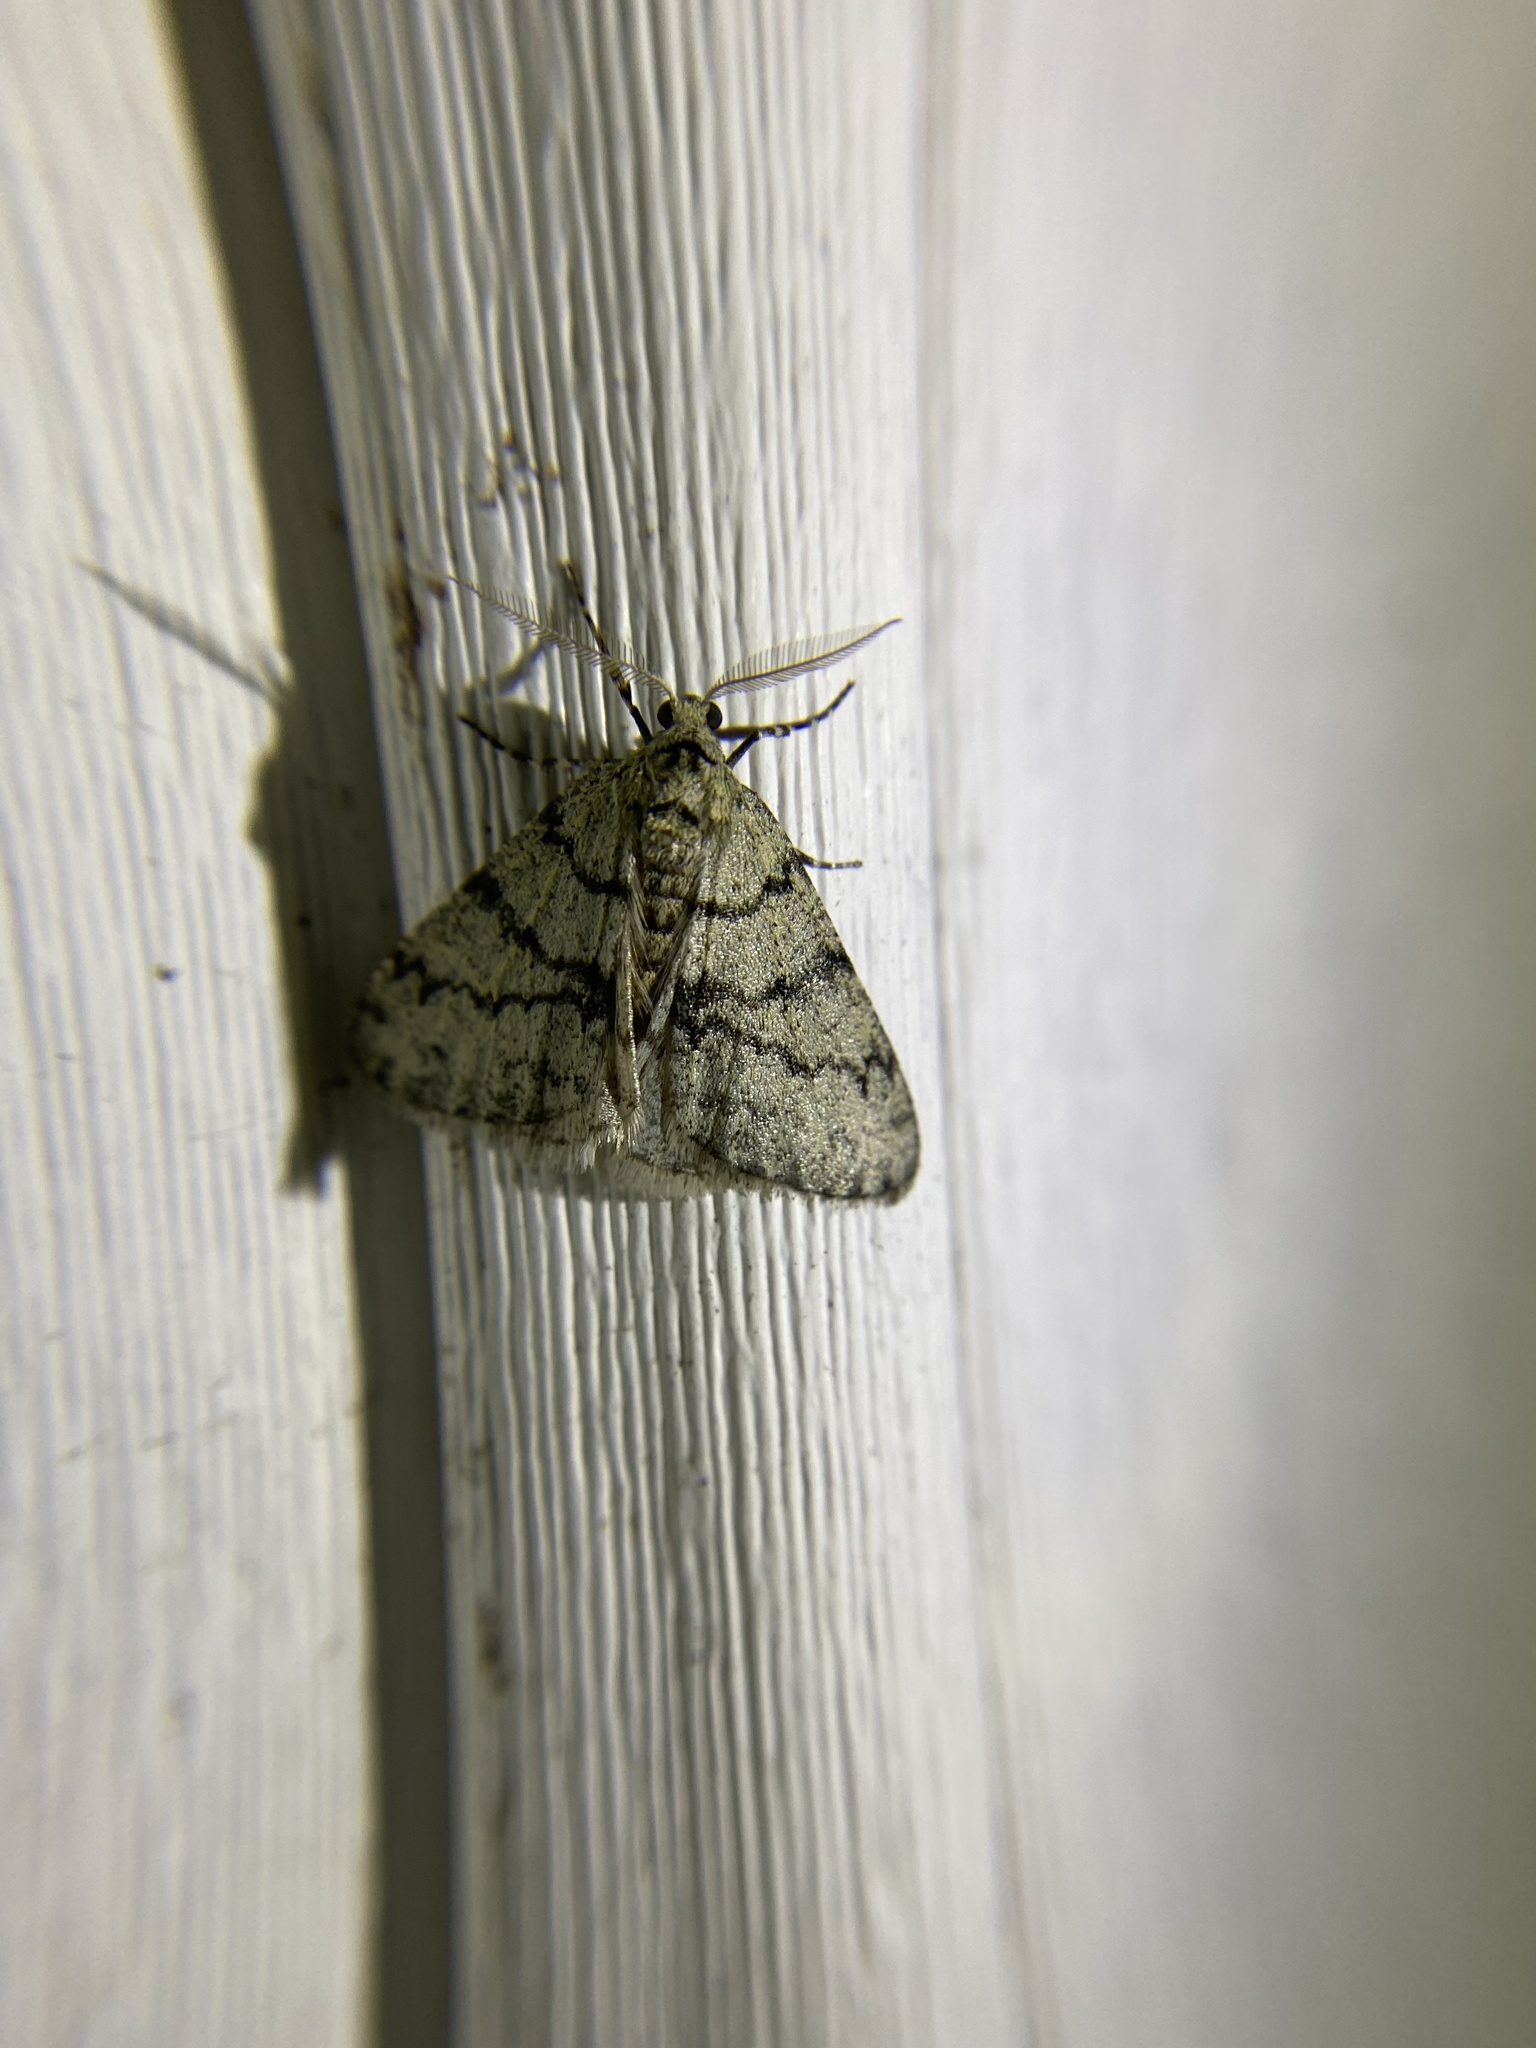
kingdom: Animalia
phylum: Arthropoda
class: Insecta
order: Lepidoptera
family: Geometridae
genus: Phigalia
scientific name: Phigalia strigataria
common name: Small phigalia
